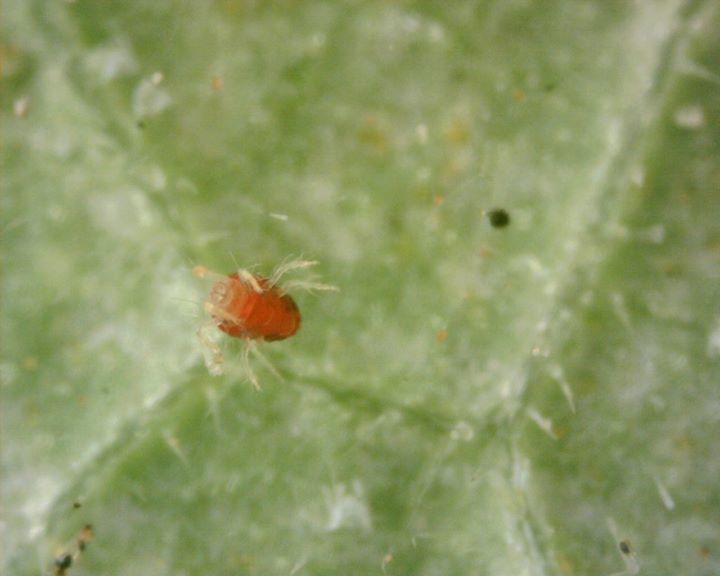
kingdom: Animalia
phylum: Arthropoda
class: Arachnida
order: Trombidiformes
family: Tetranychidae
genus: Tetranychus
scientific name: Tetranychus urticae
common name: Carmine spider mite
